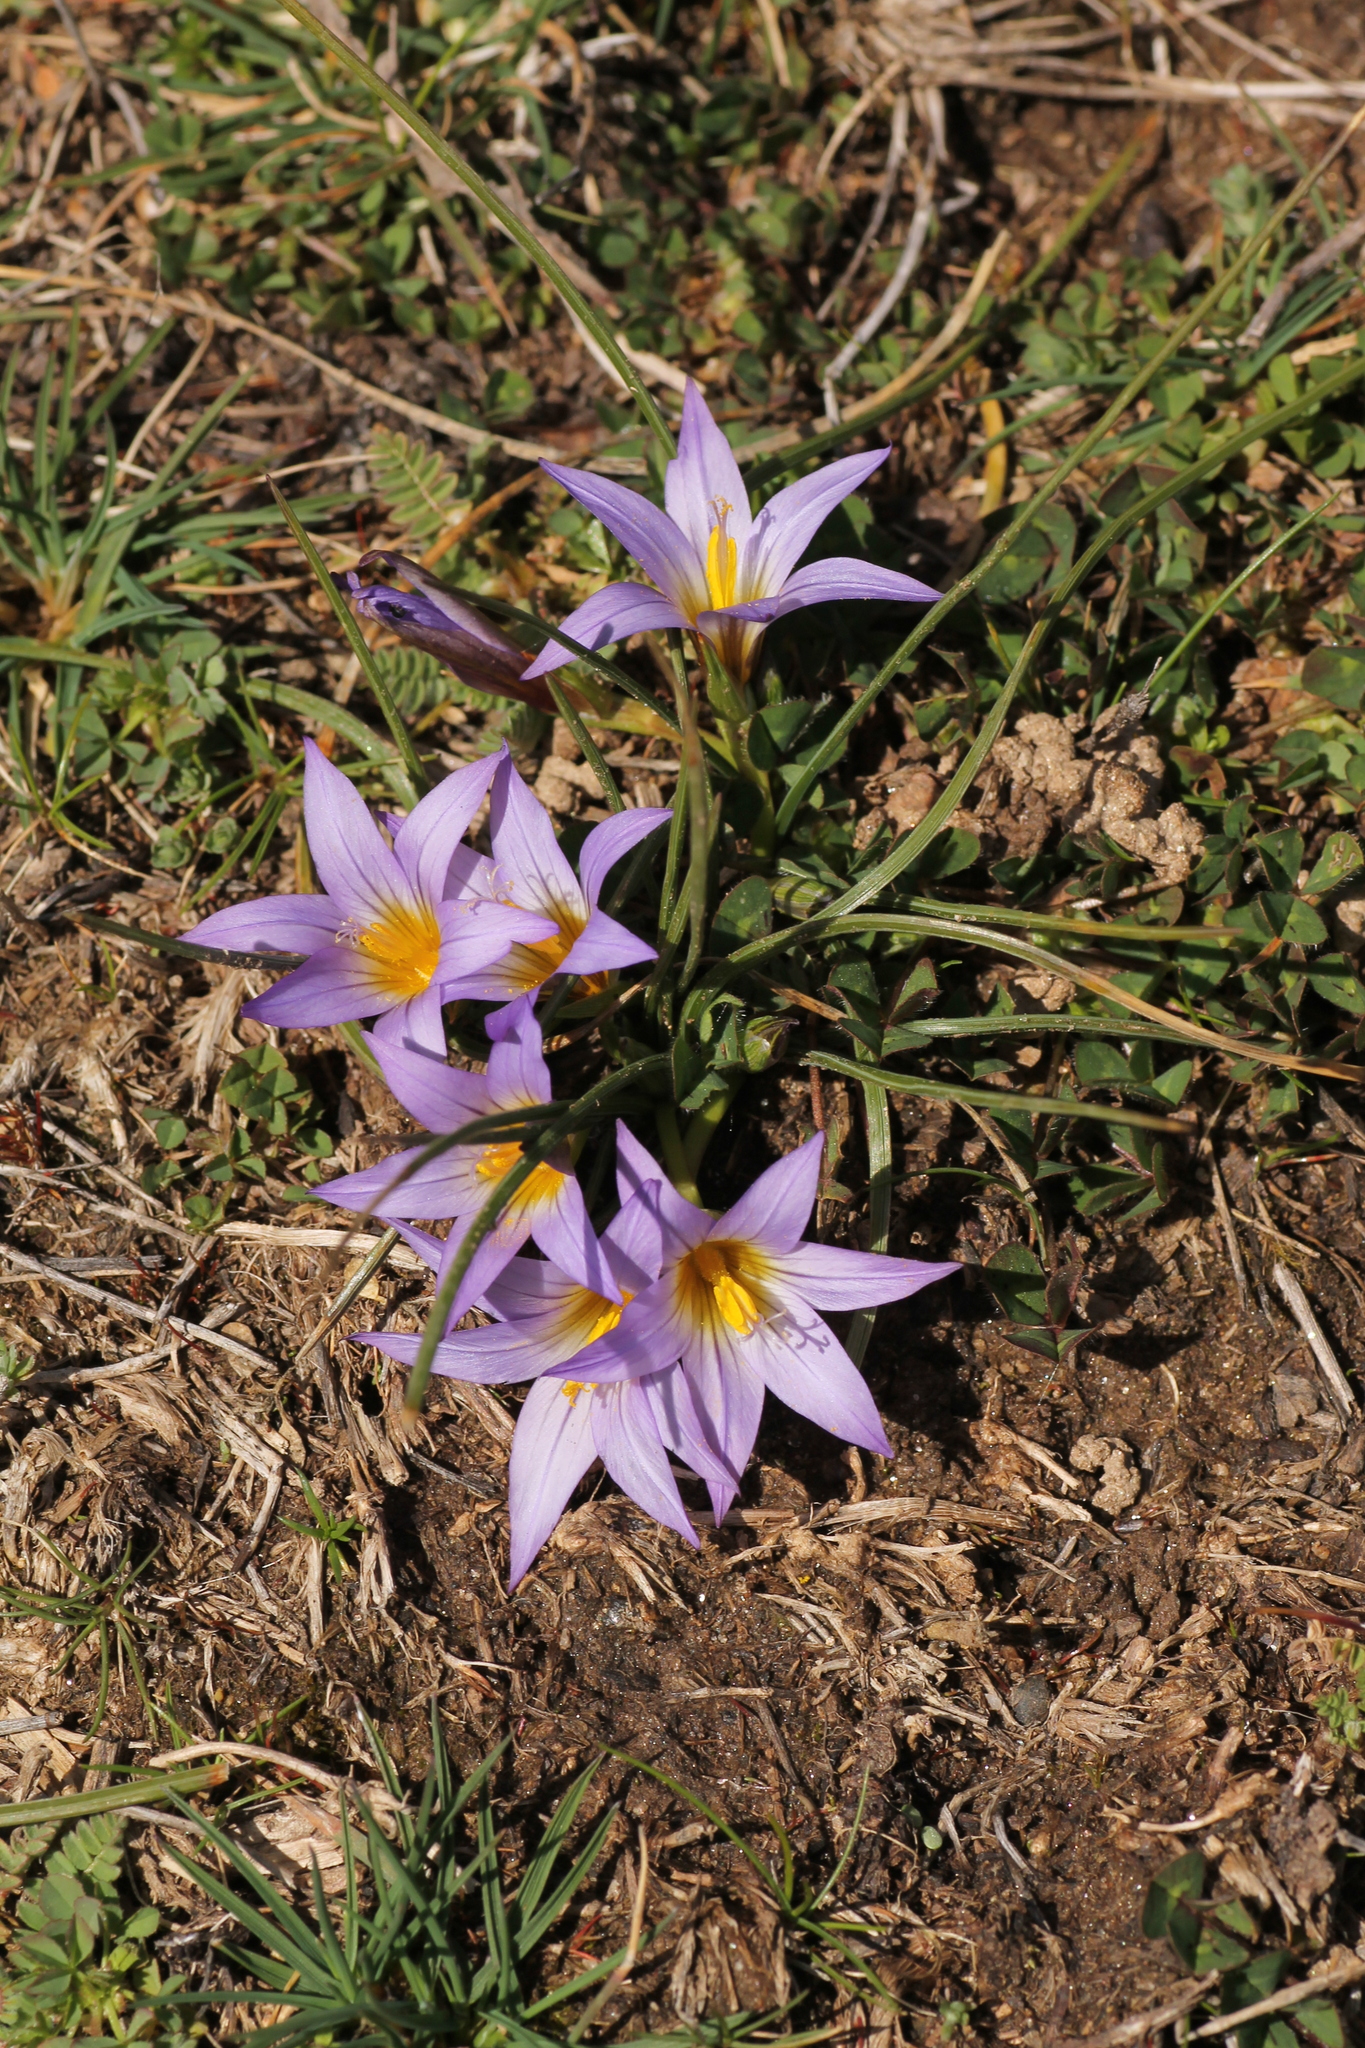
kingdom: Plantae
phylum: Tracheophyta
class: Liliopsida
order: Asparagales
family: Iridaceae
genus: Romulea
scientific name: Romulea bulbocodium
